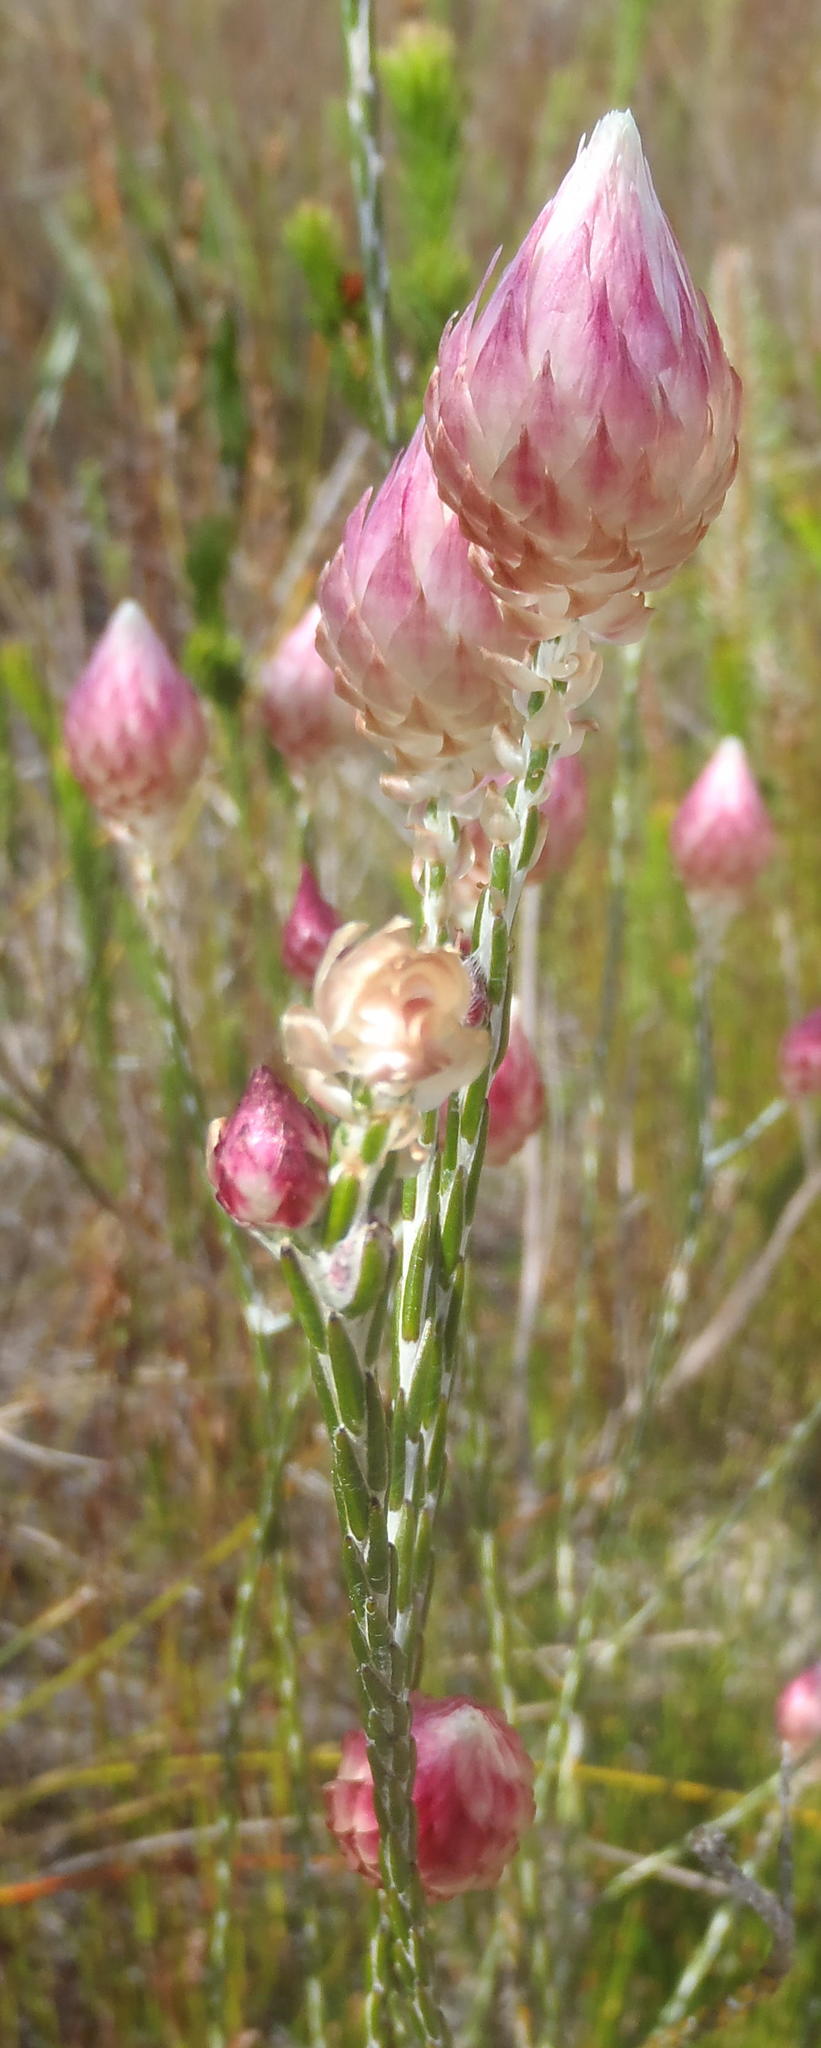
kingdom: Plantae
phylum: Tracheophyta
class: Magnoliopsida
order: Asterales
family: Asteraceae
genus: Edmondia
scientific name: Edmondia pinifolia
